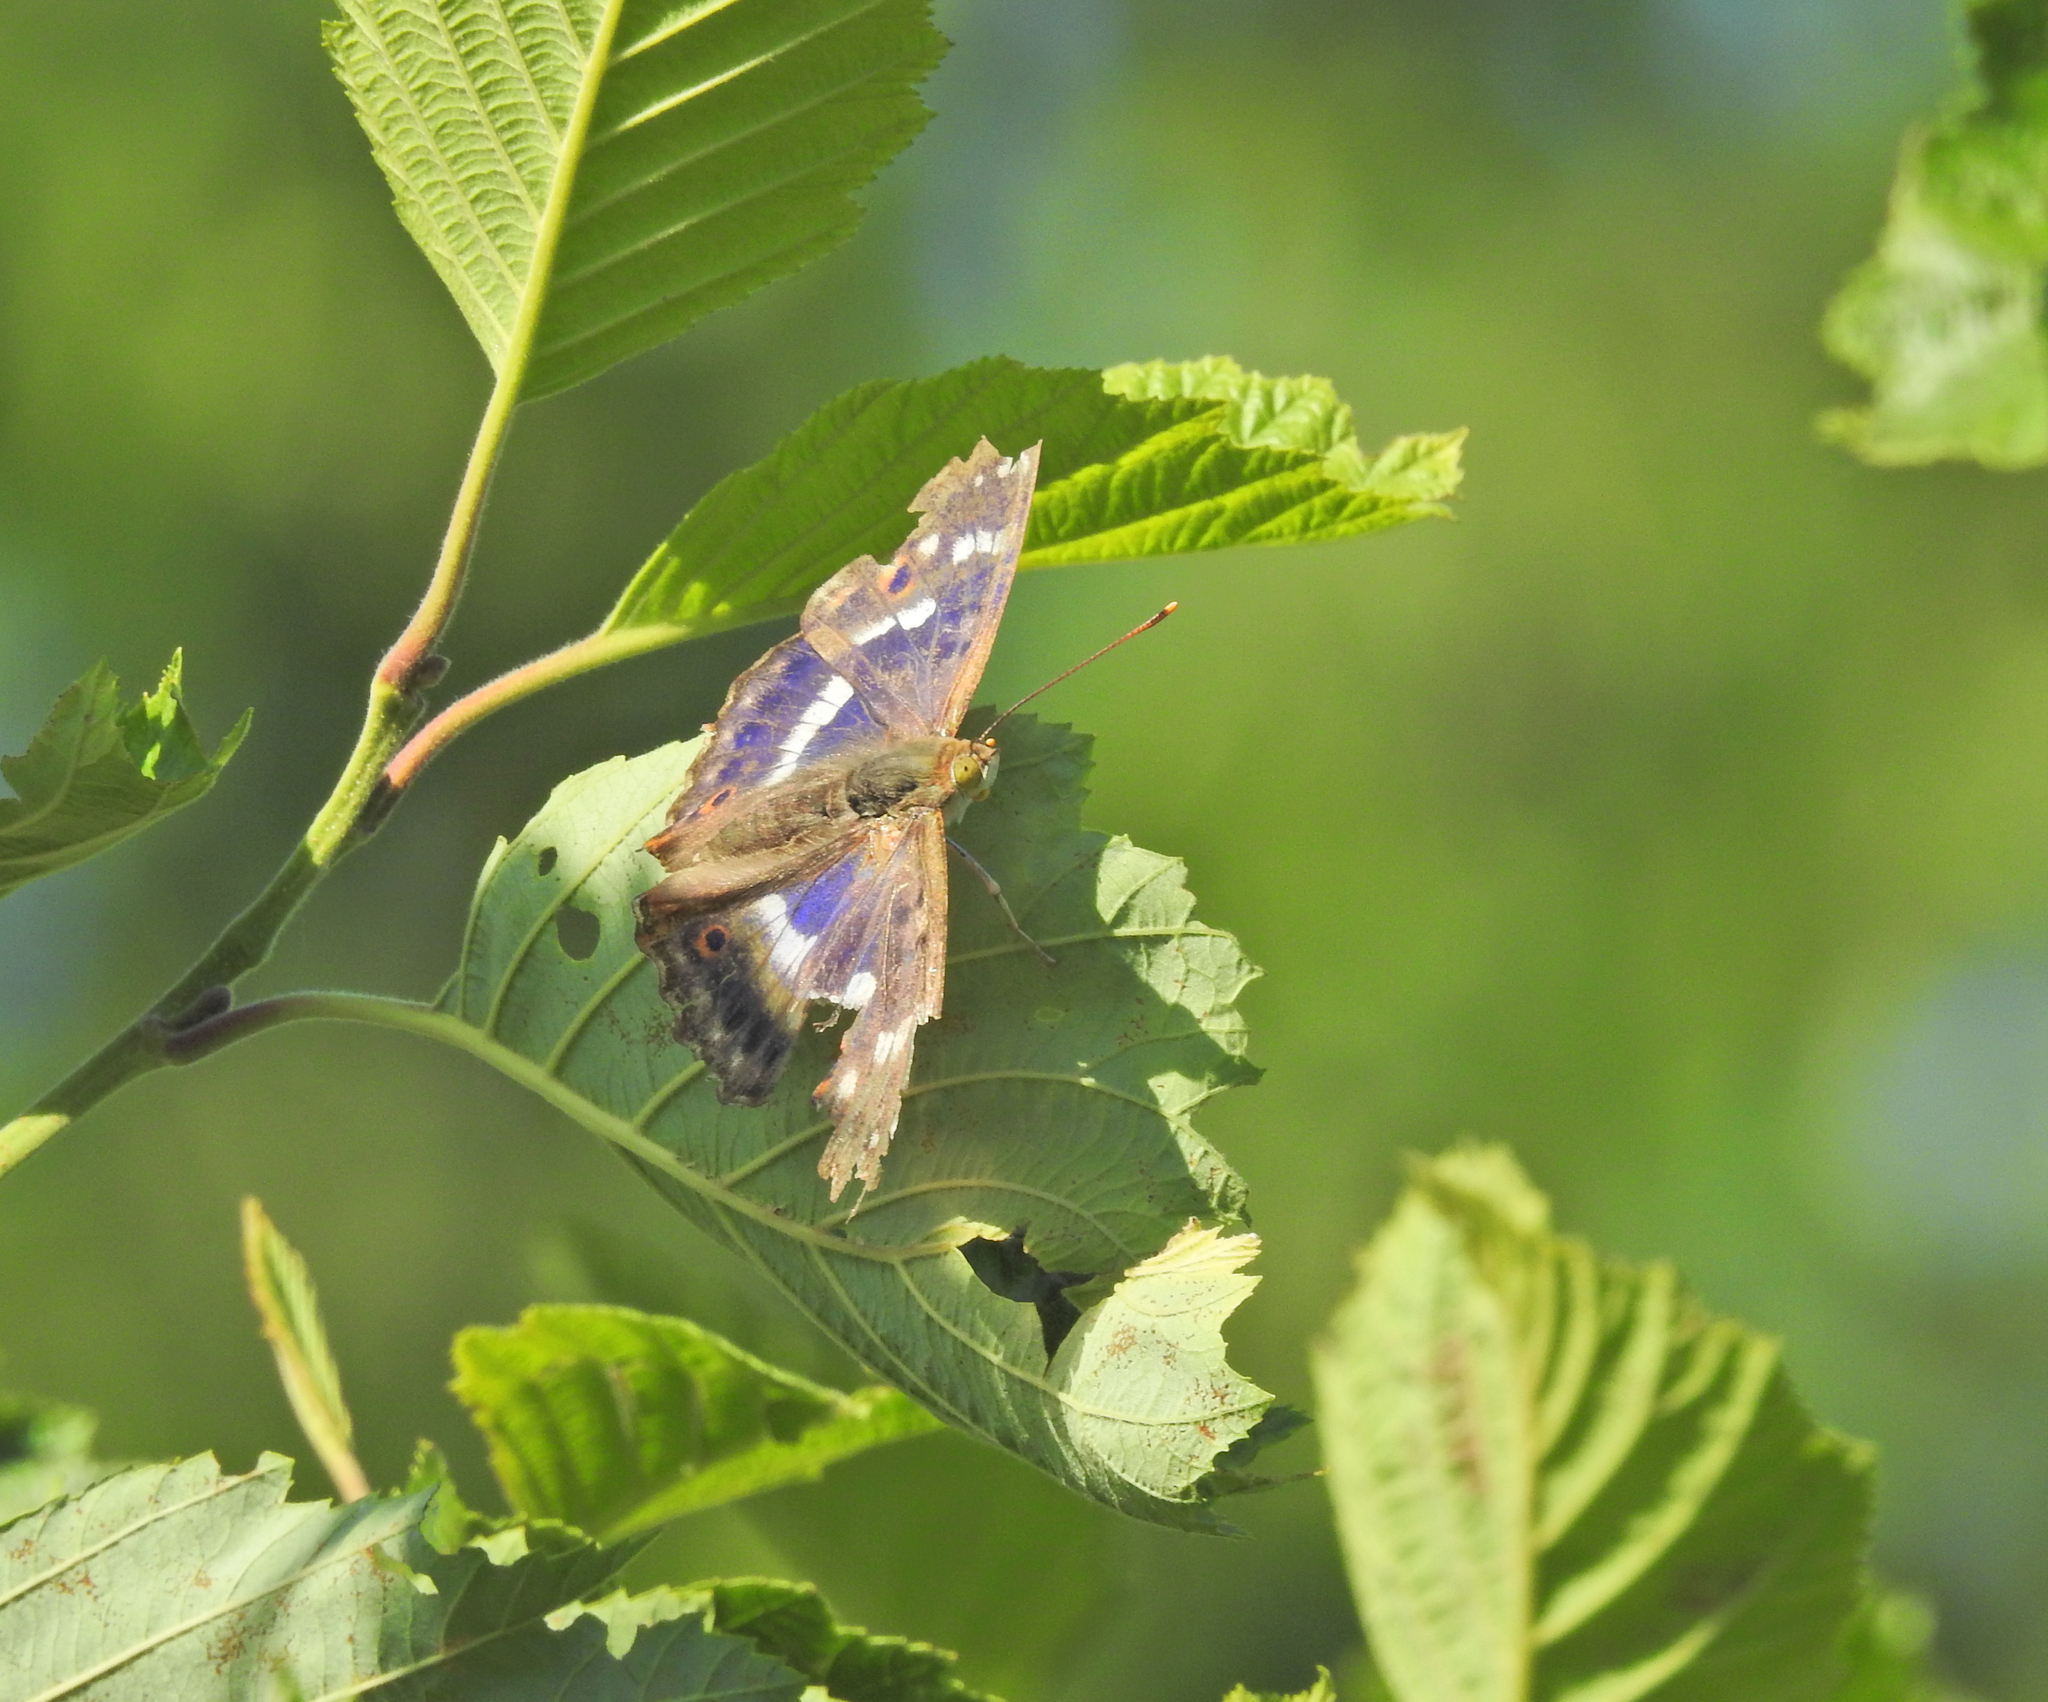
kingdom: Animalia
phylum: Arthropoda
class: Insecta
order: Lepidoptera
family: Nymphalidae
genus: Apatura
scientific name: Apatura ilia
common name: Lesser purple emperor
